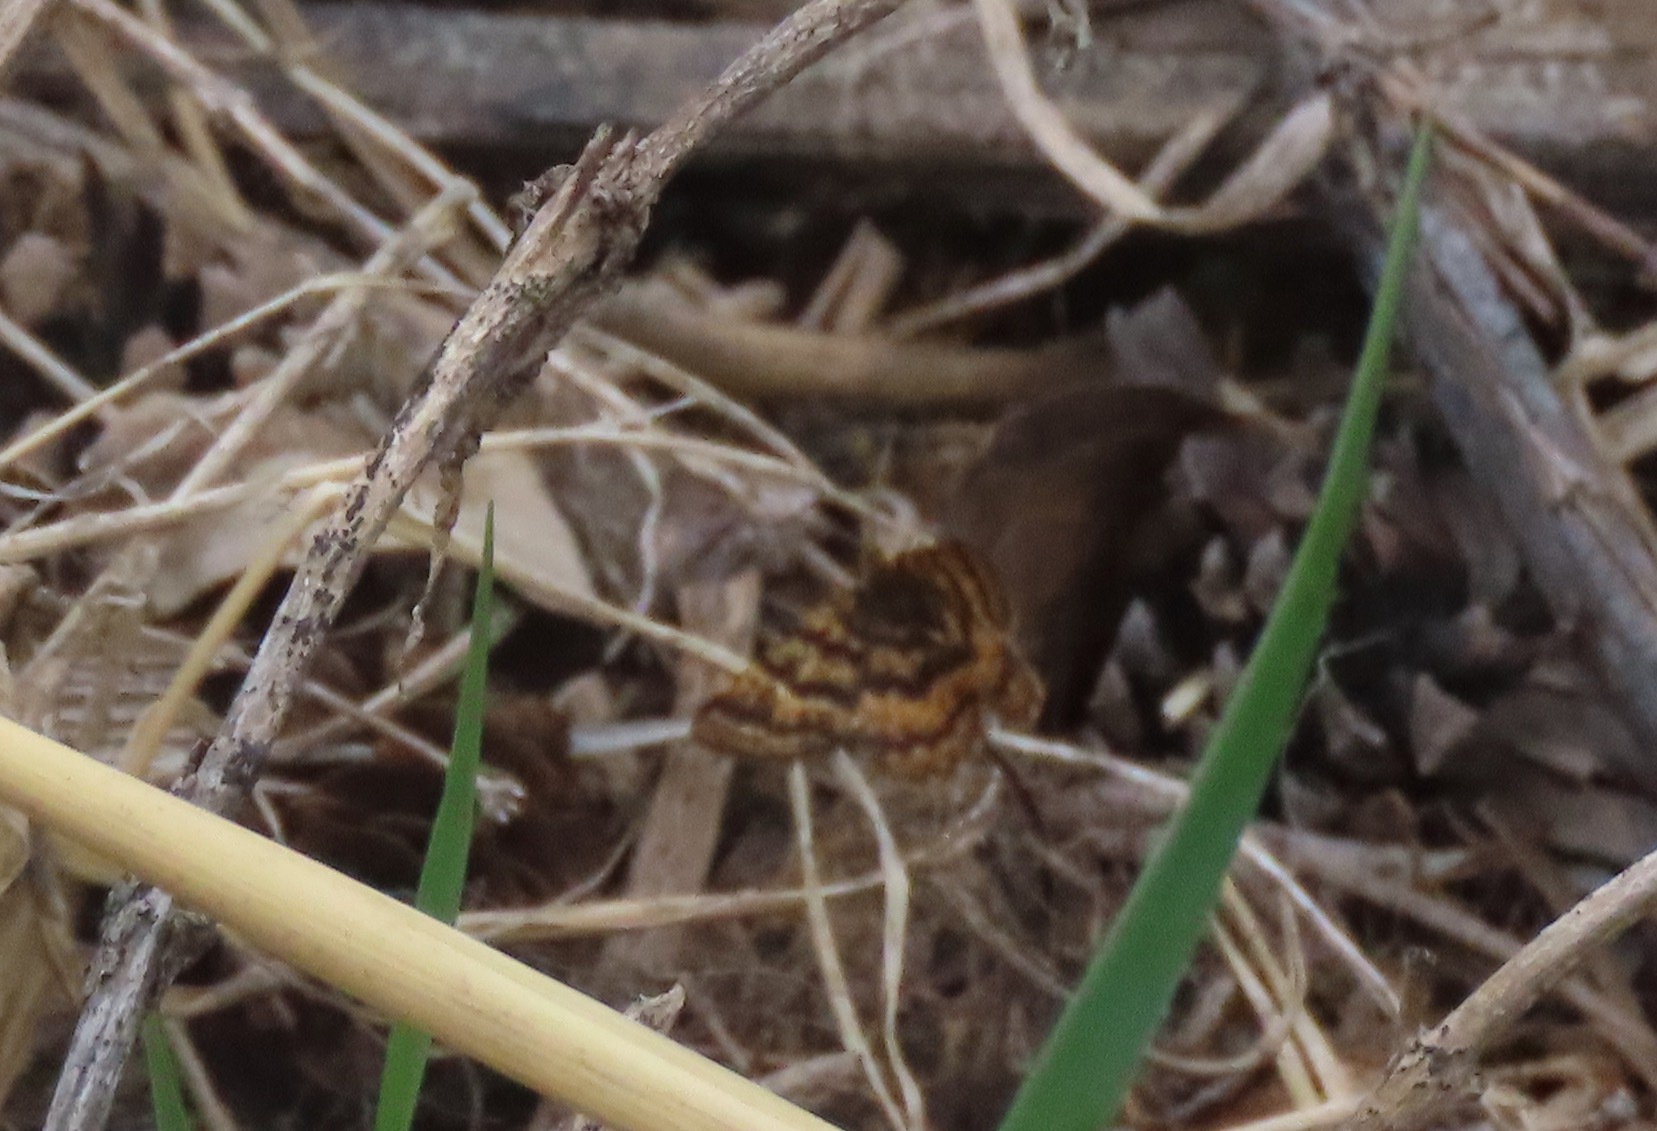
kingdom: Animalia
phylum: Arthropoda
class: Insecta
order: Lepidoptera
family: Geometridae
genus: Macaria
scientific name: Macaria truncataria
